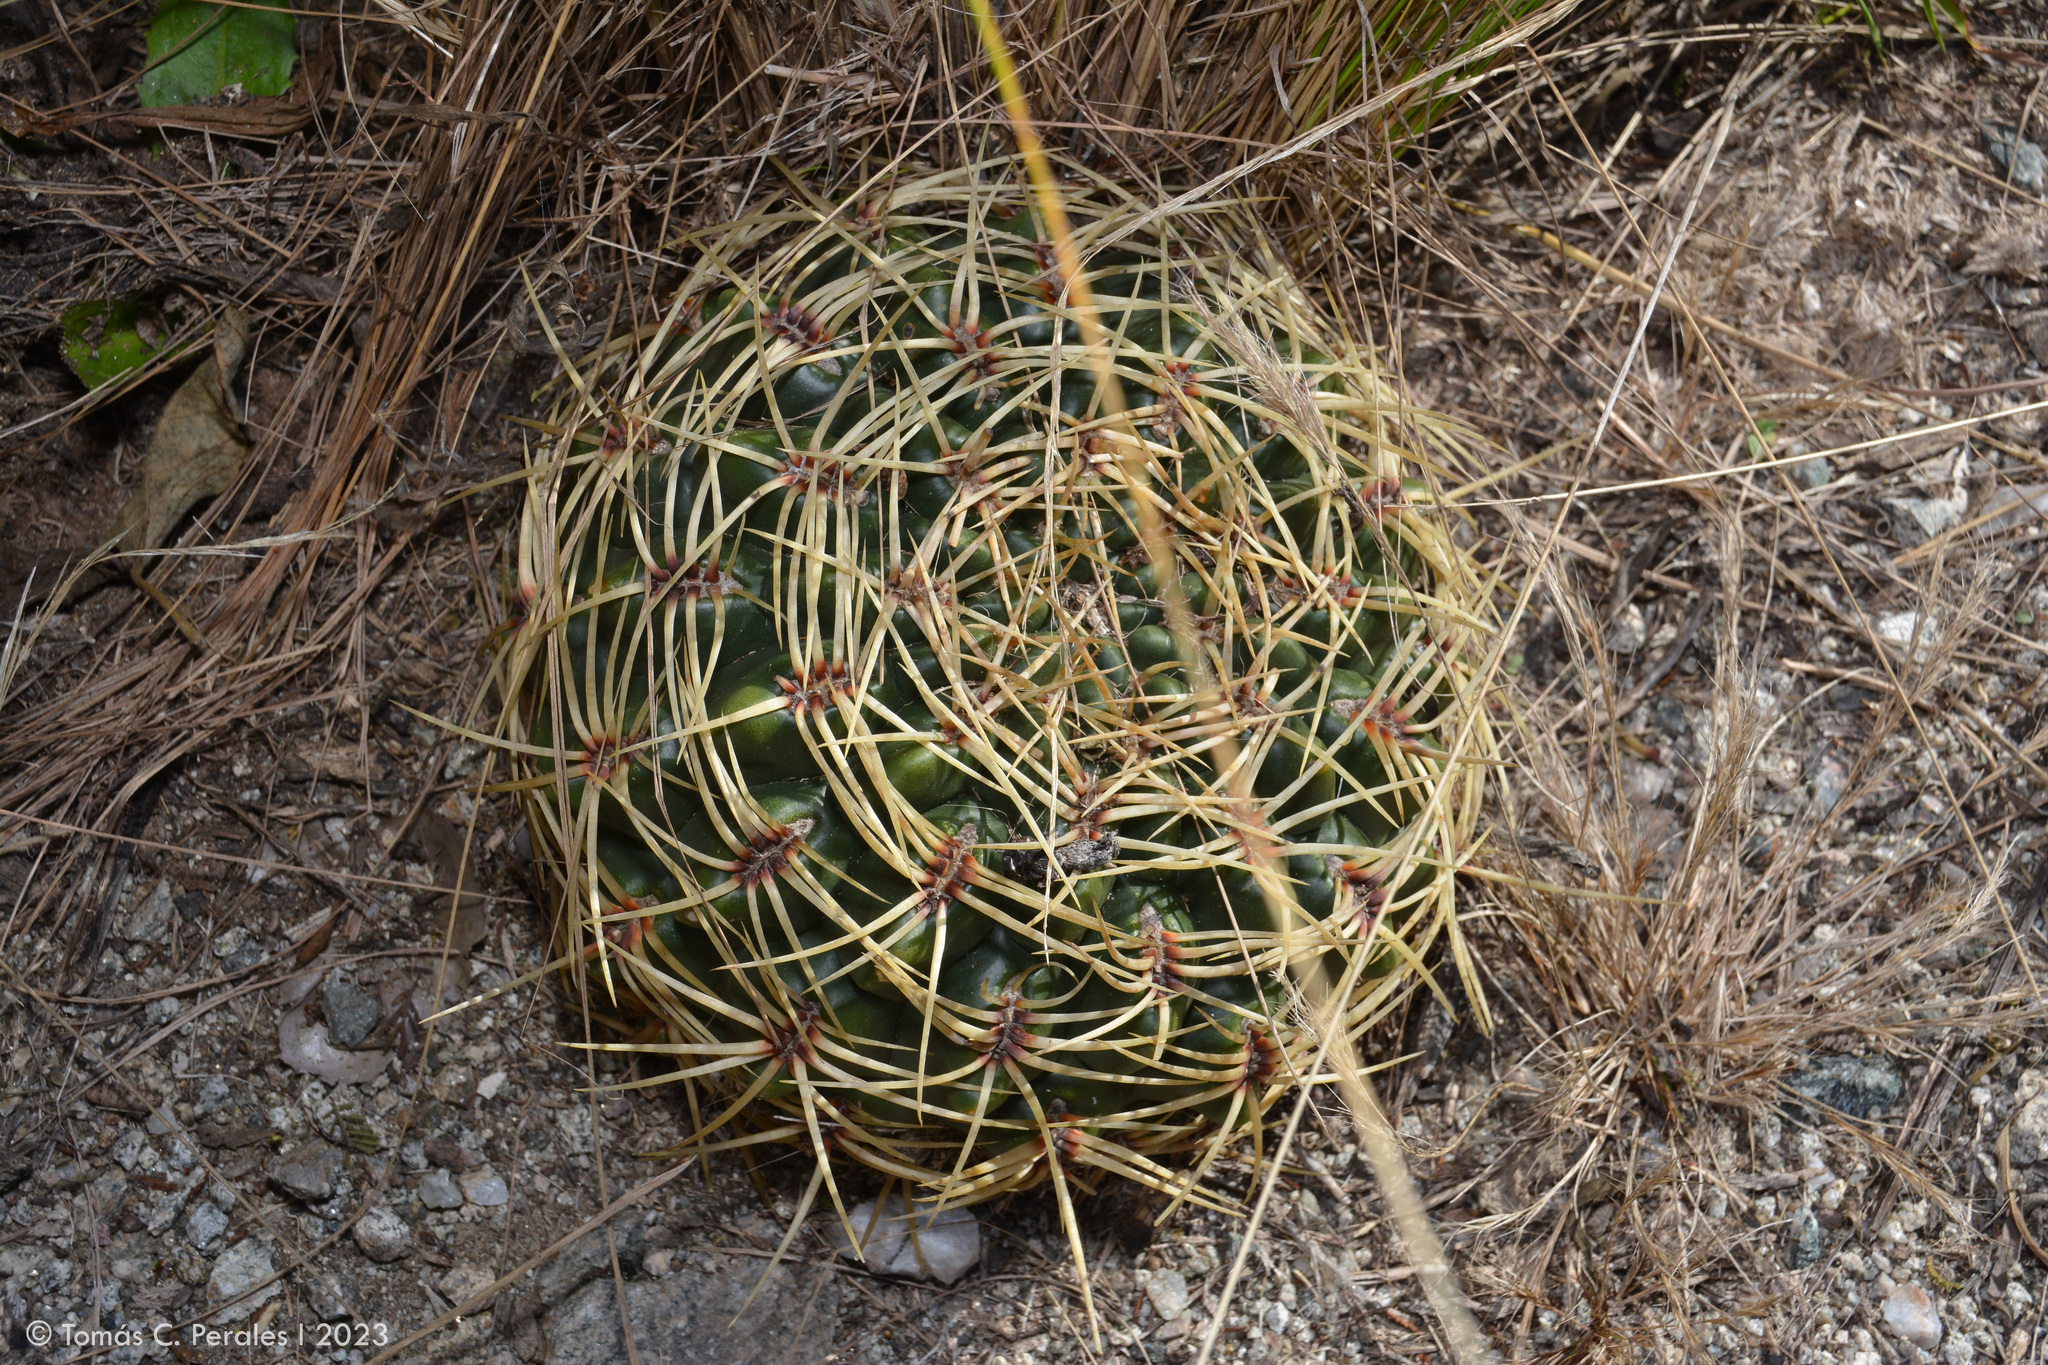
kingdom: Plantae
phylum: Tracheophyta
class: Magnoliopsida
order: Caryophyllales
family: Cactaceae
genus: Gymnocalycium
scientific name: Gymnocalycium monvillei
